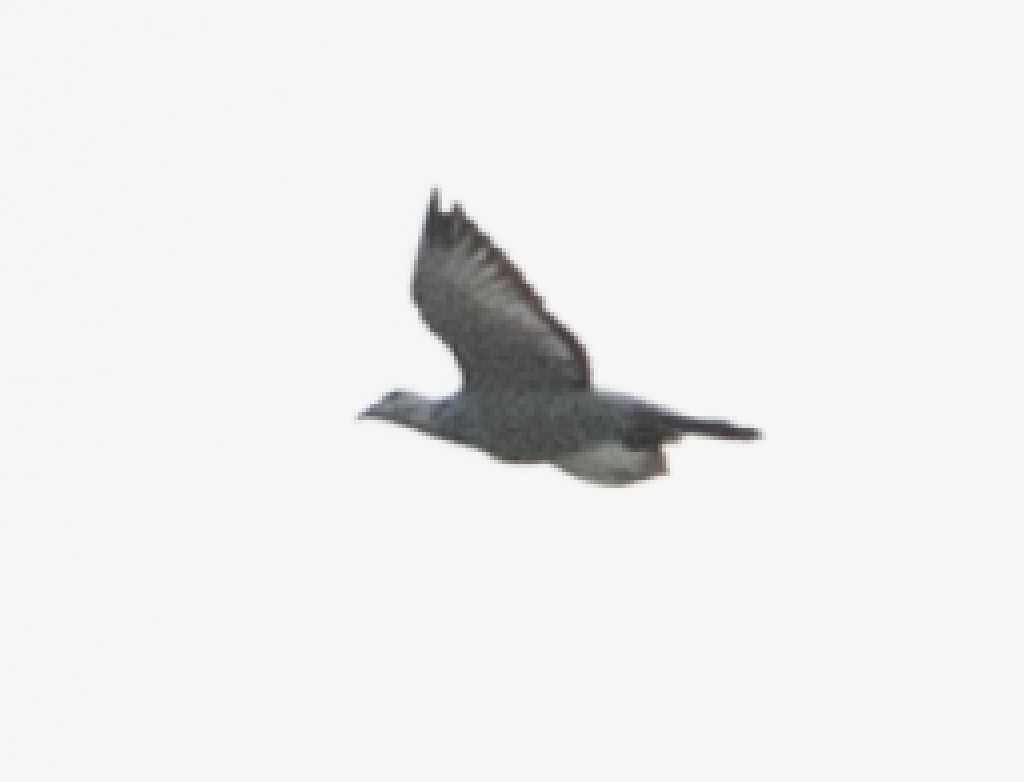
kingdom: Animalia
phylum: Chordata
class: Aves
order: Columbiformes
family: Columbidae
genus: Columba
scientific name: Columba livia
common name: Rock pigeon
